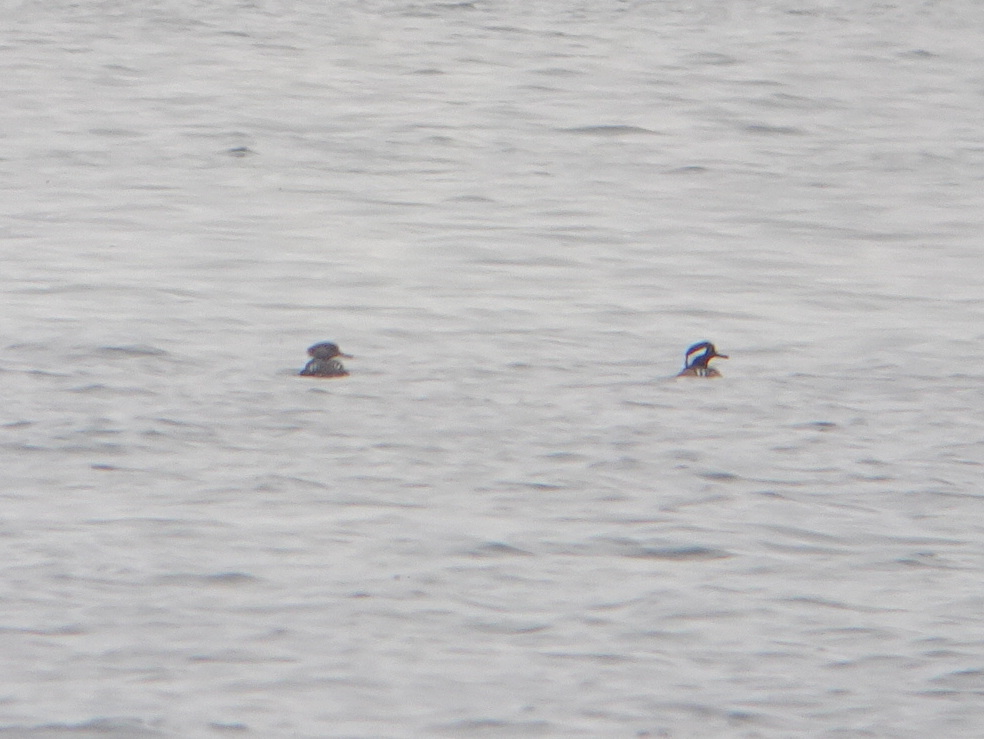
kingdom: Animalia
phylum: Chordata
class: Aves
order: Anseriformes
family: Anatidae
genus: Lophodytes
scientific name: Lophodytes cucullatus
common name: Hooded merganser
